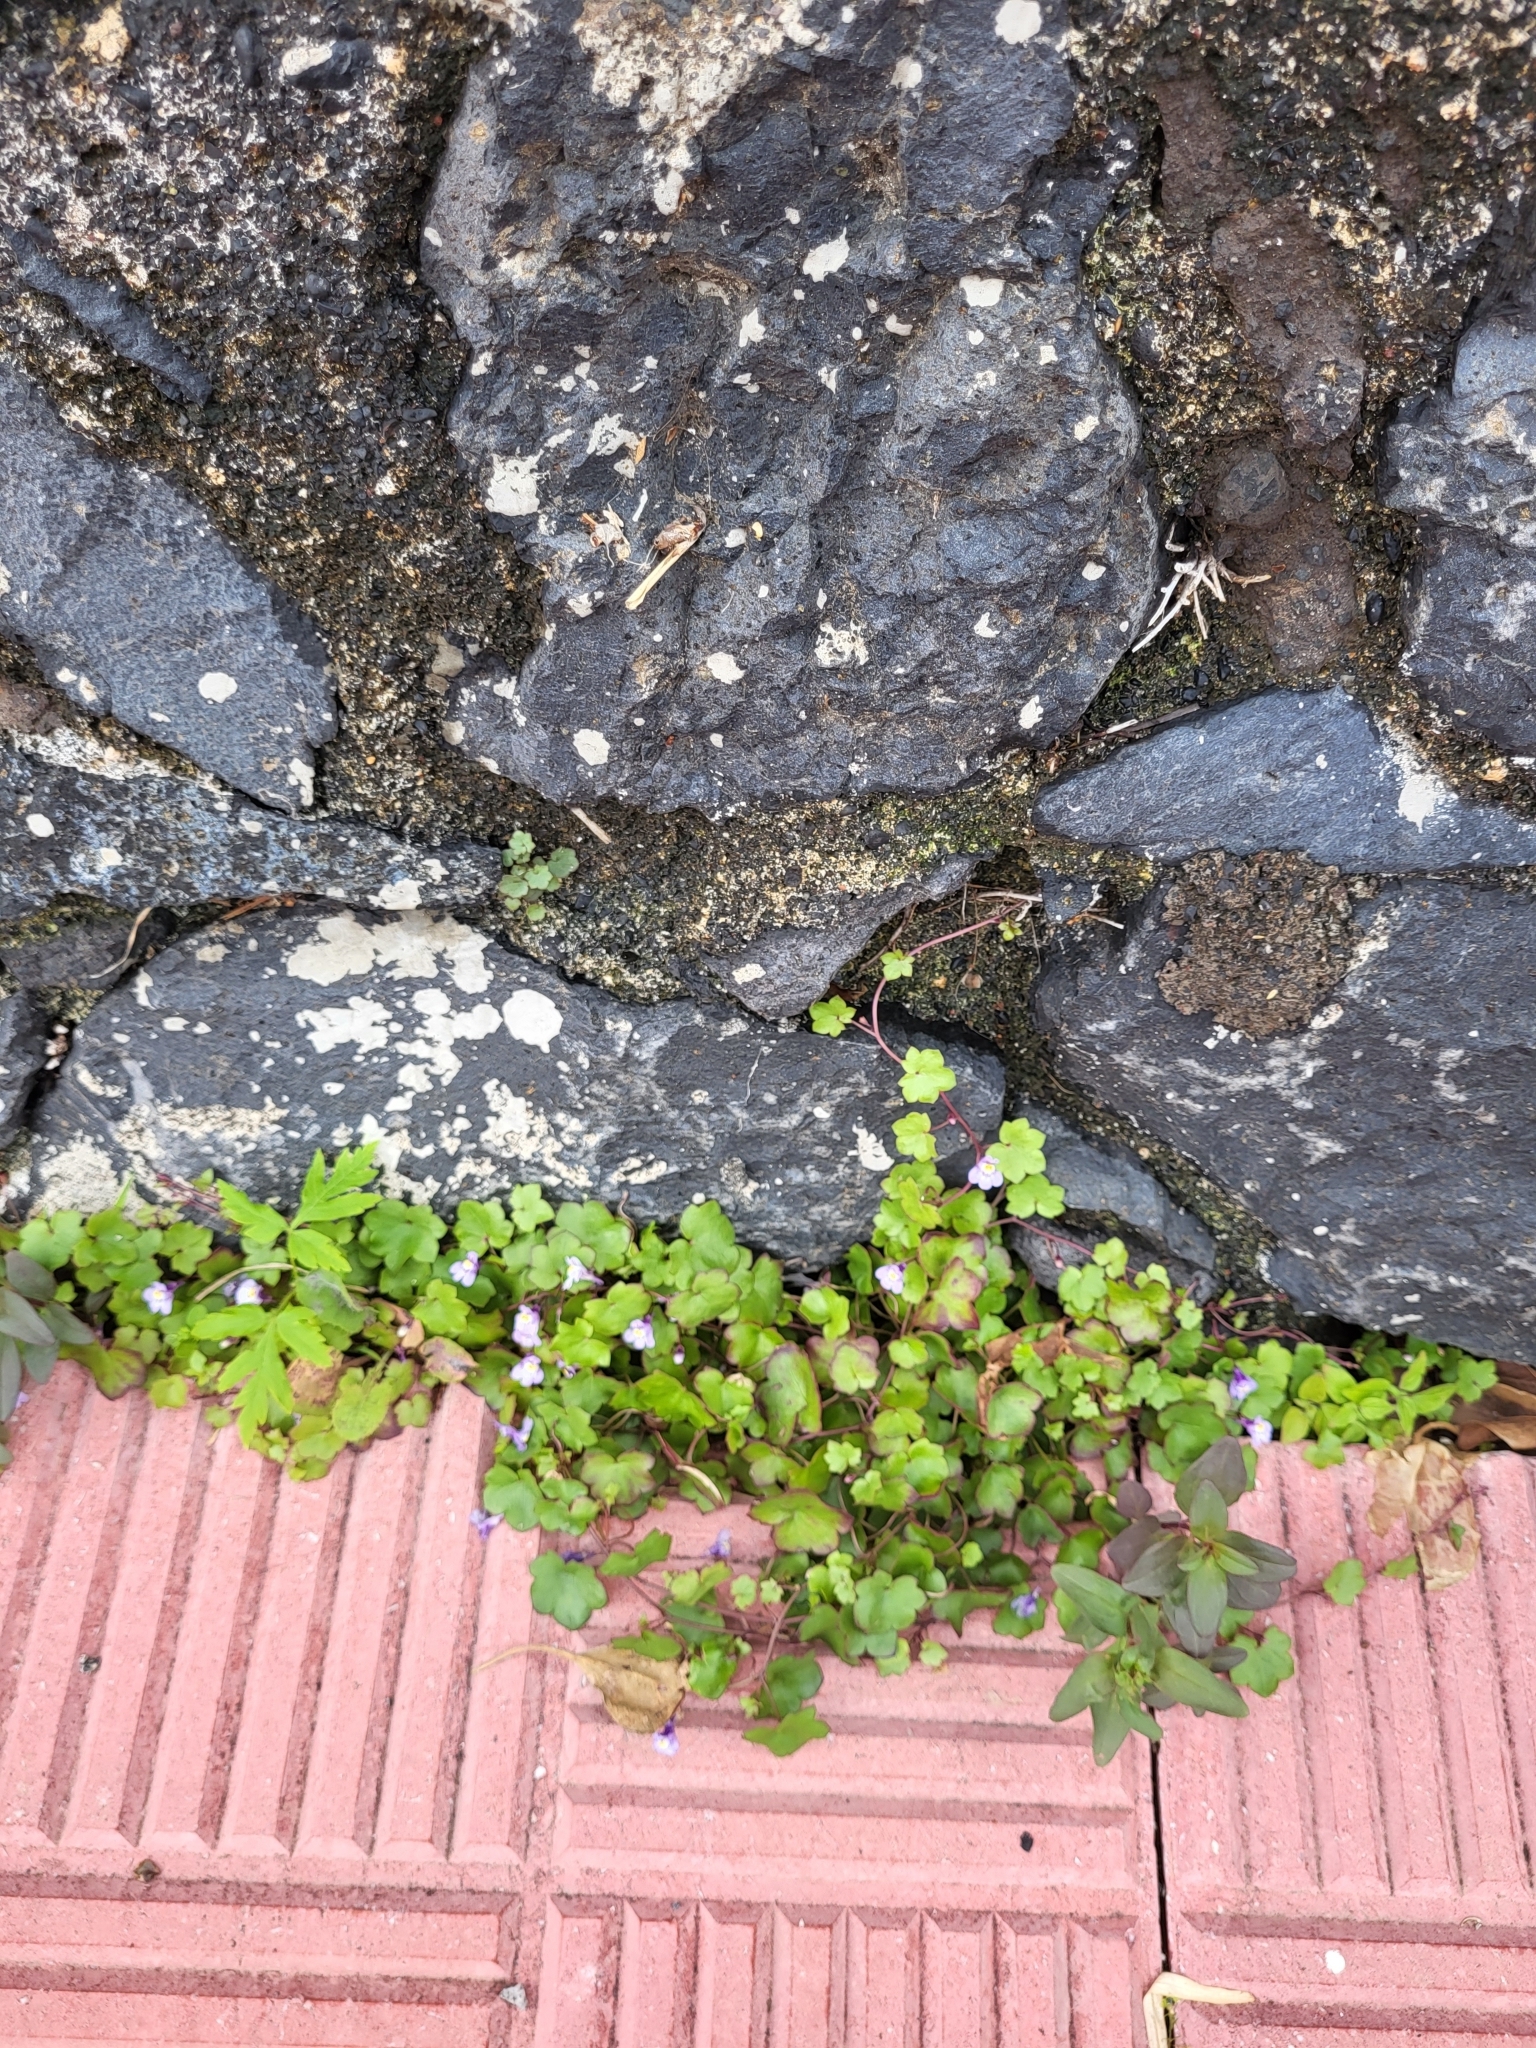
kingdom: Plantae
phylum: Tracheophyta
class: Magnoliopsida
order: Lamiales
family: Plantaginaceae
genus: Cymbalaria
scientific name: Cymbalaria muralis
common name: Ivy-leaved toadflax
